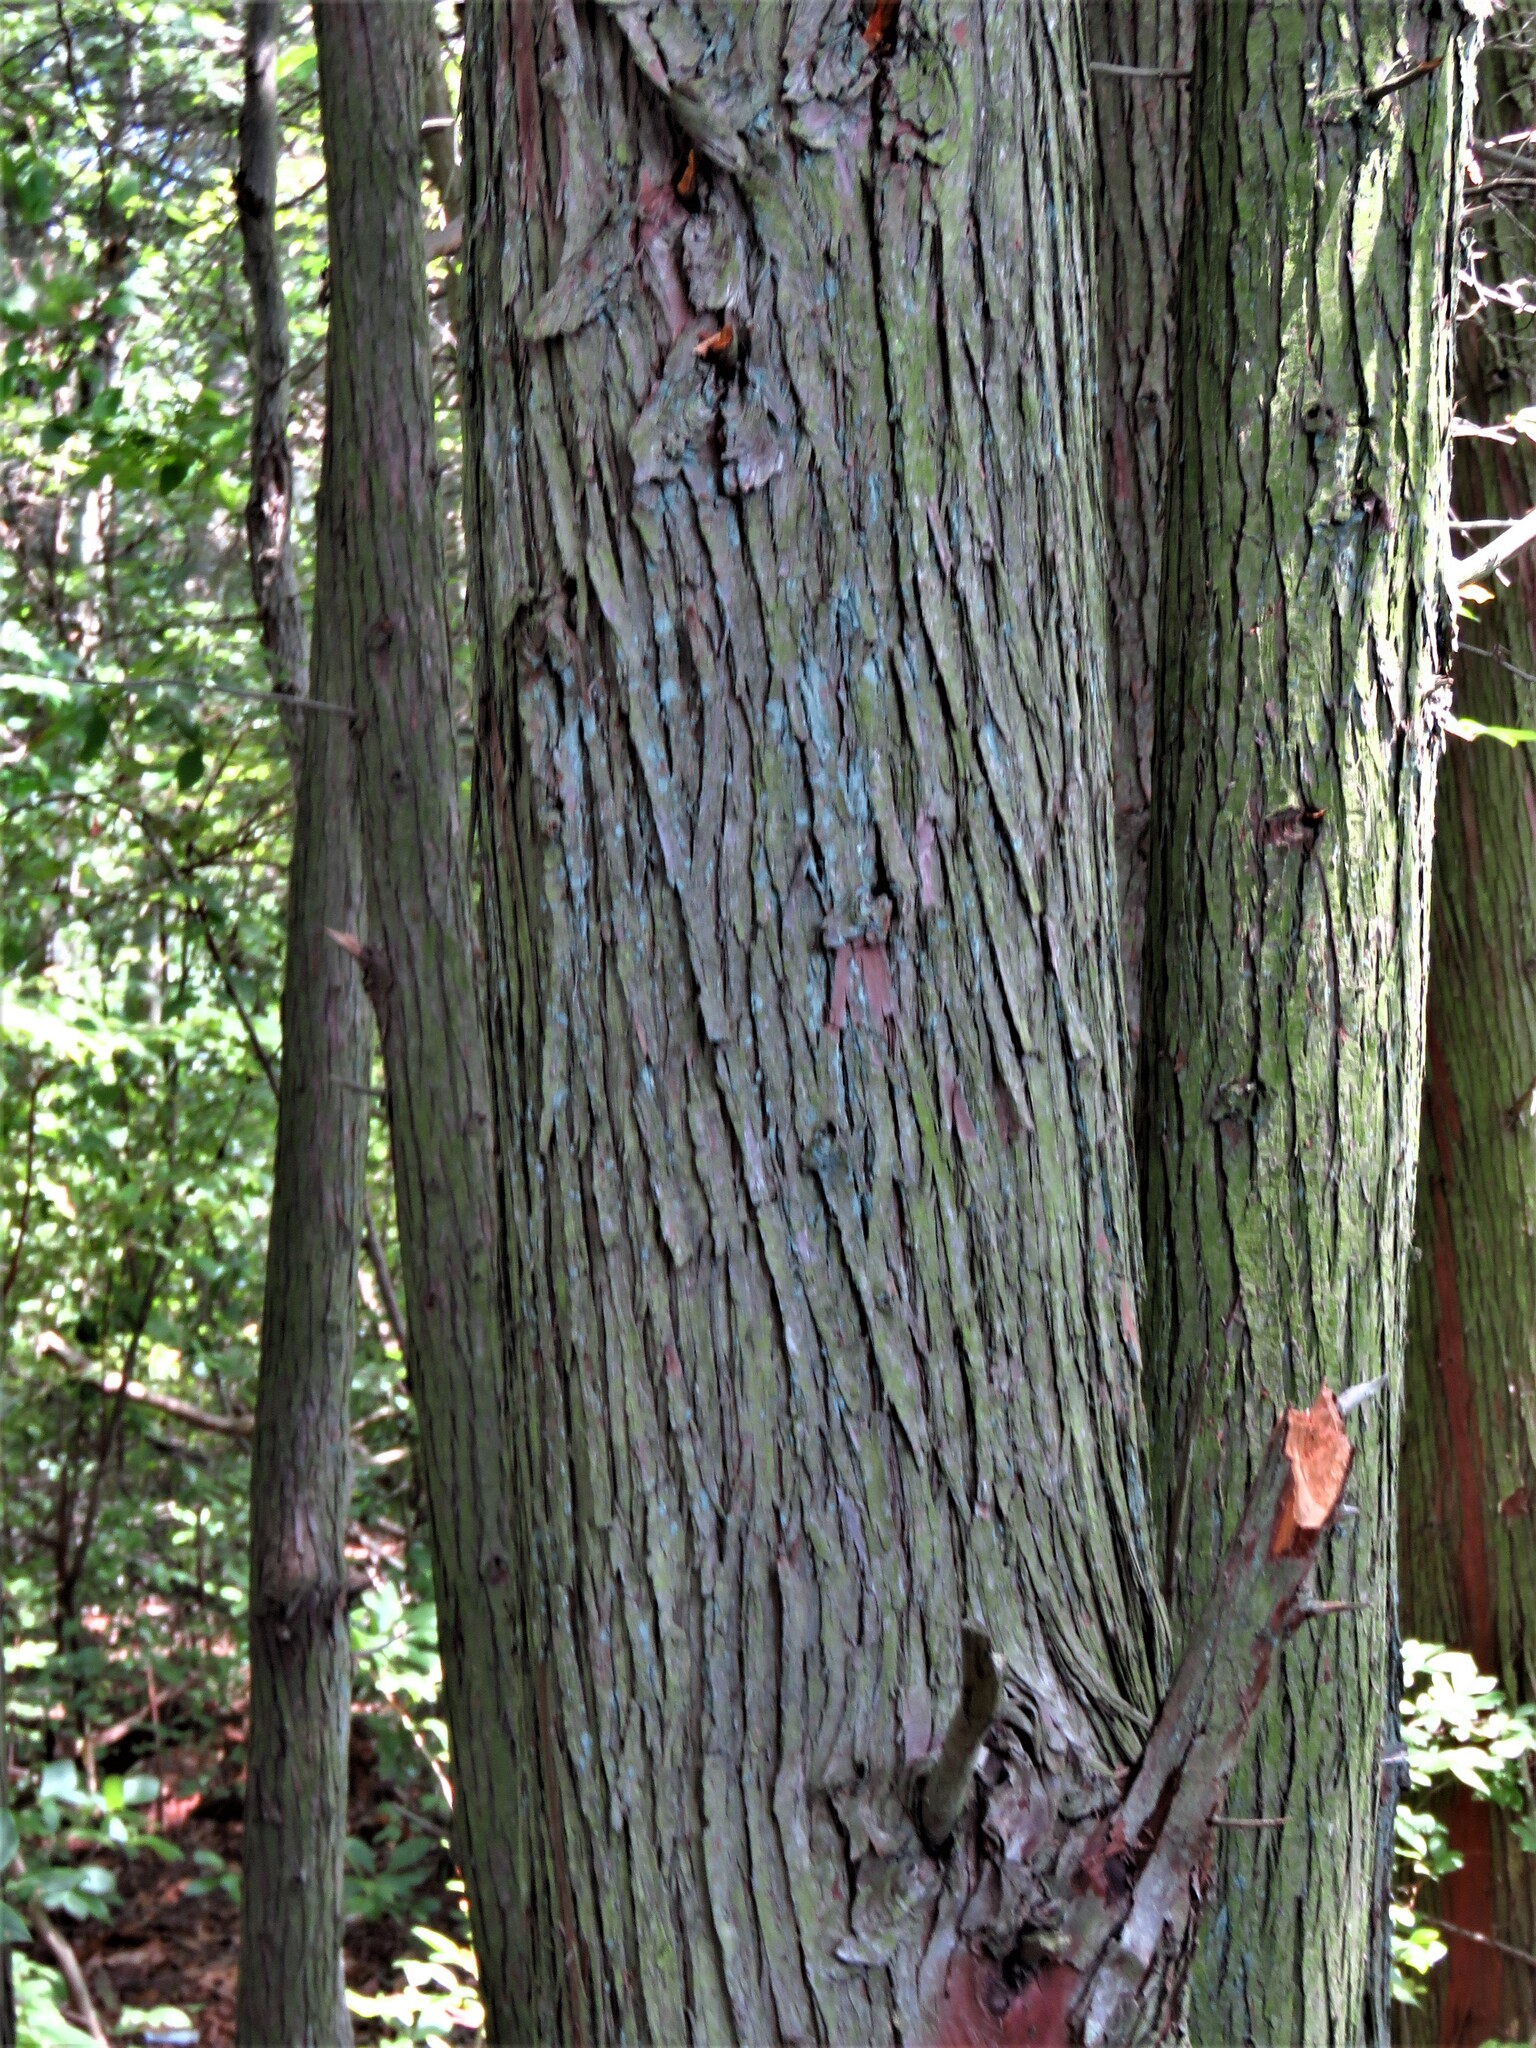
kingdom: Plantae
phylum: Tracheophyta
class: Pinopsida
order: Pinales
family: Cupressaceae
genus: Chamaecyparis
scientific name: Chamaecyparis thyoides
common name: Atlantic white cedar
